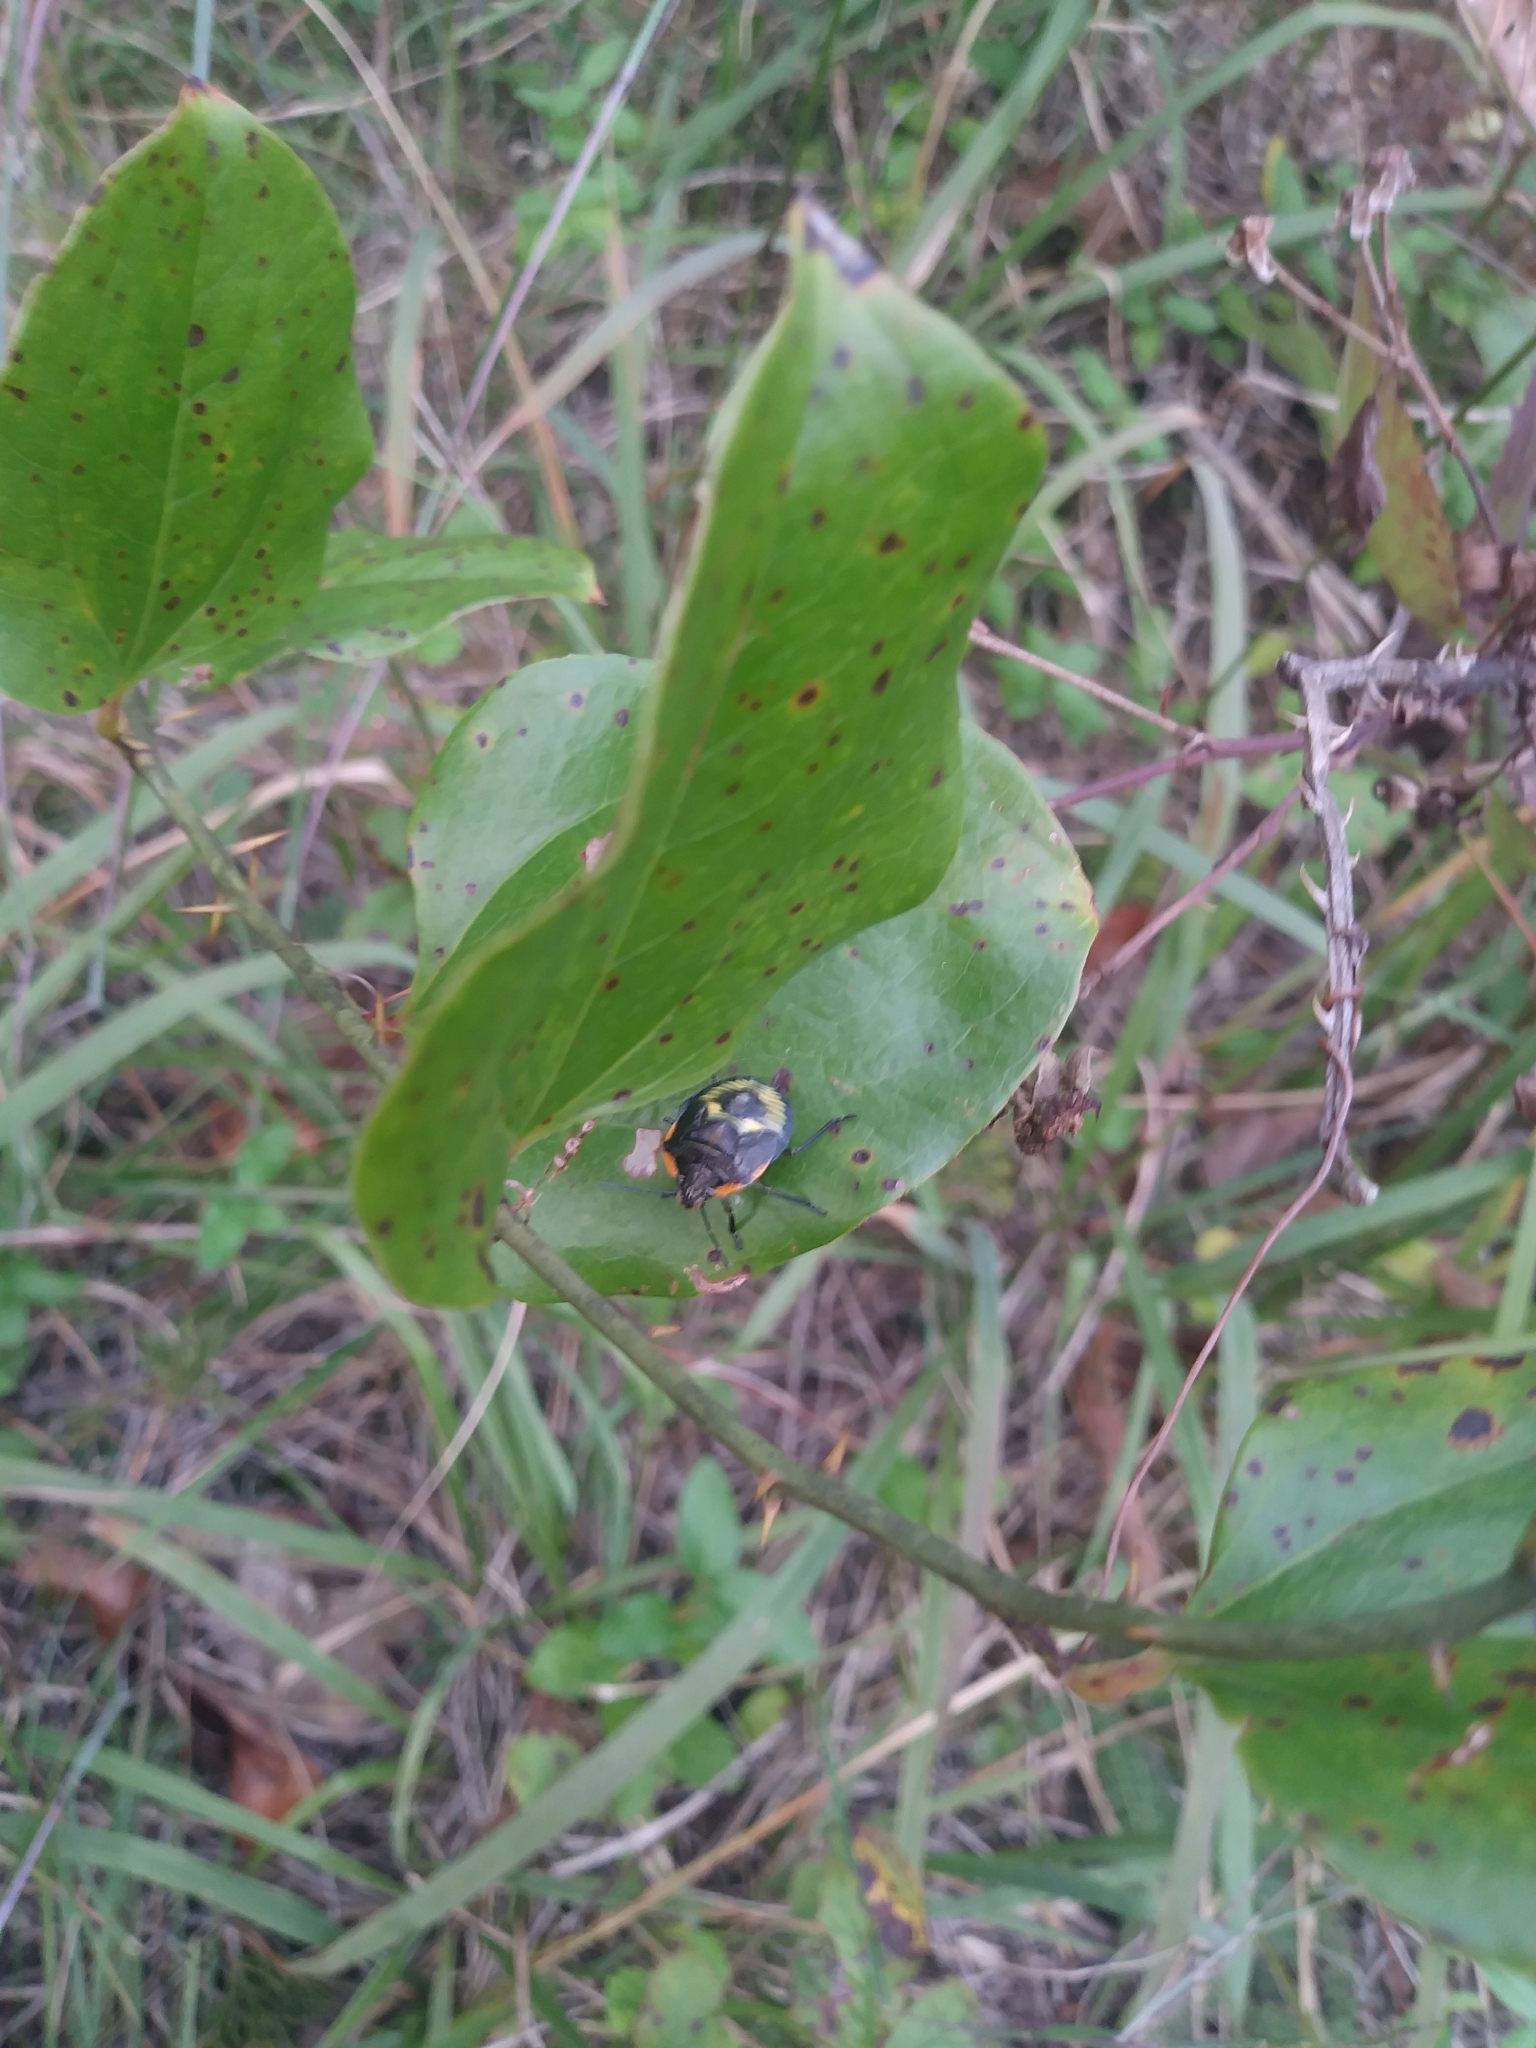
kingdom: Animalia
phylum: Arthropoda
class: Insecta
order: Hemiptera
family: Pentatomidae
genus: Chinavia
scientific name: Chinavia hilaris
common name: Green stink bug
